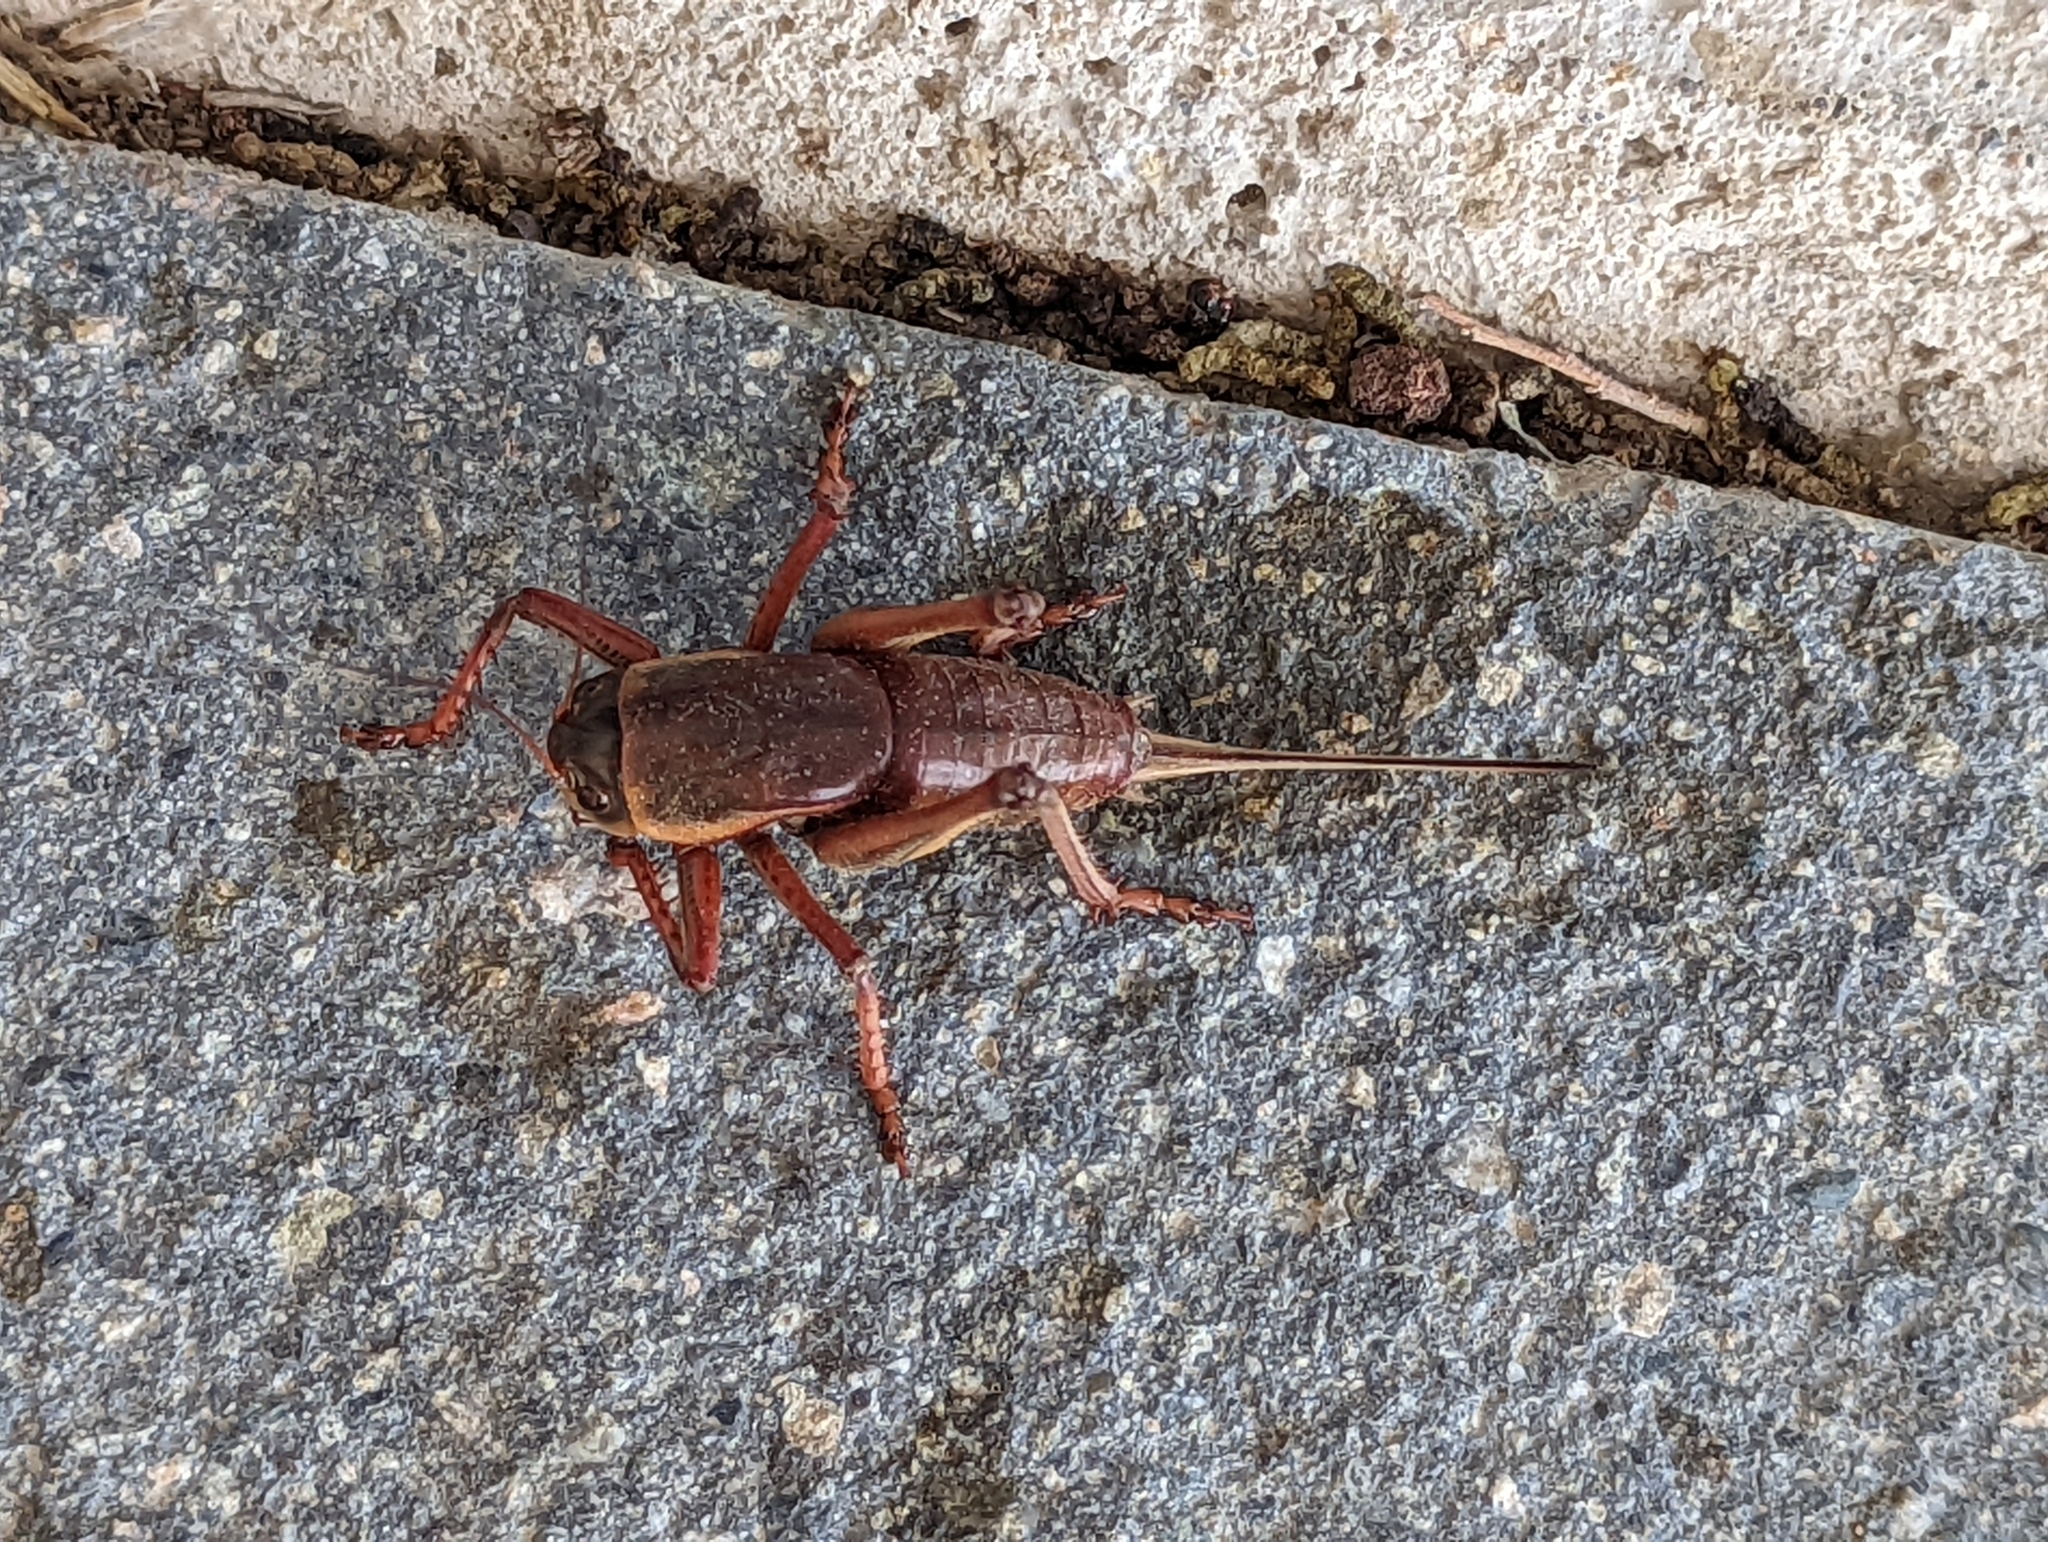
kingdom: Animalia
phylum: Arthropoda
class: Insecta
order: Orthoptera
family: Tettigoniidae
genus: Anabrus
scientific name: Anabrus simplex
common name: Mormon cricket
